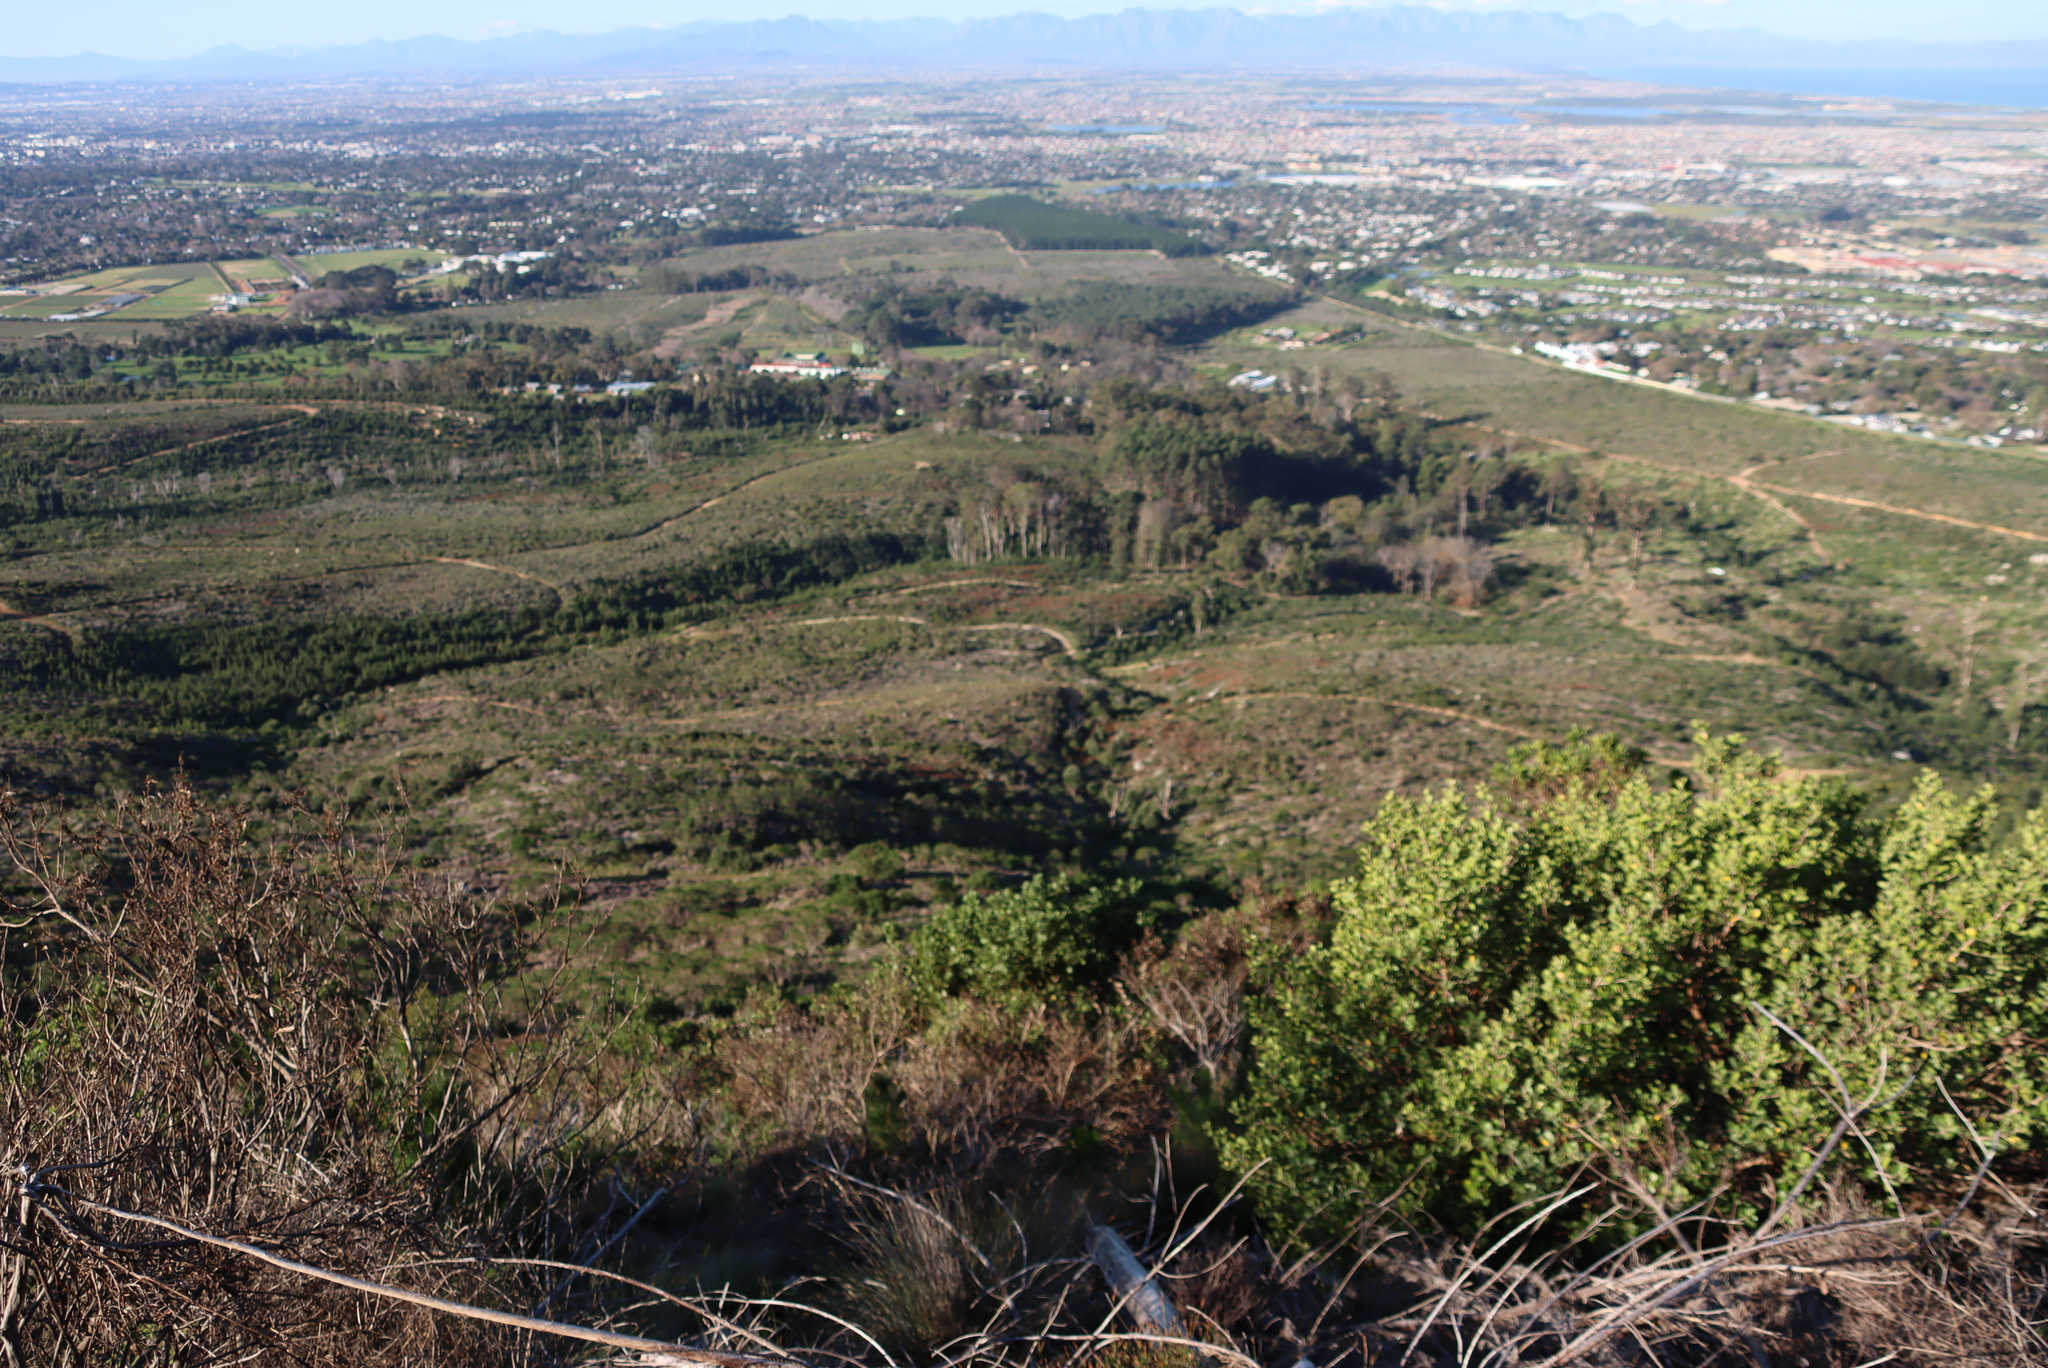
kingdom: Plantae
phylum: Tracheophyta
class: Magnoliopsida
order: Asterales
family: Asteraceae
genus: Osteospermum
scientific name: Osteospermum moniliferum
